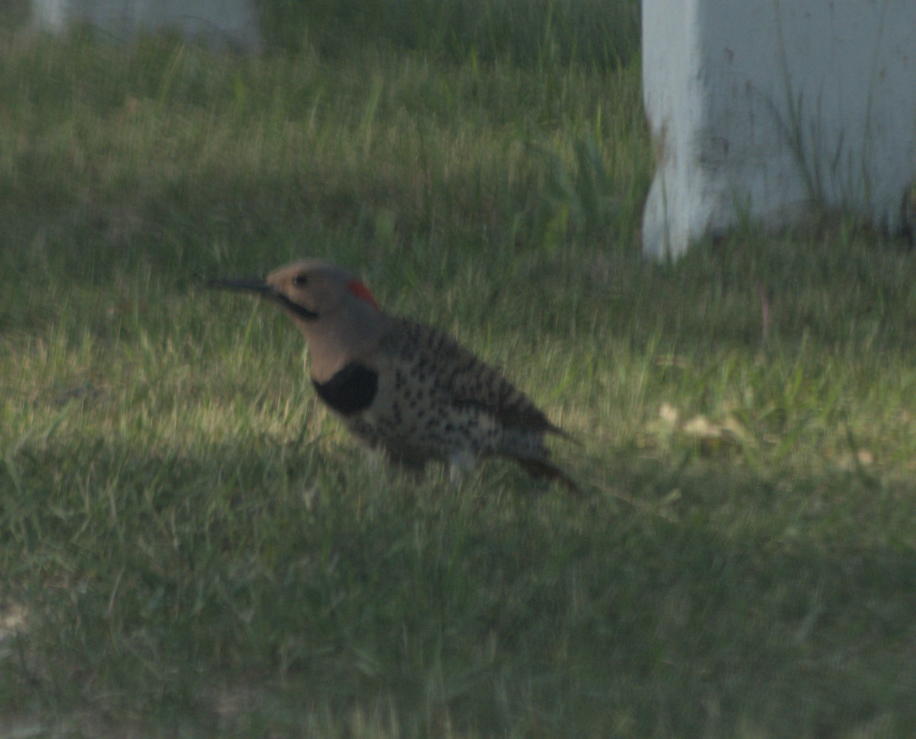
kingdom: Animalia
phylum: Chordata
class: Aves
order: Piciformes
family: Picidae
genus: Colaptes
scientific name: Colaptes auratus
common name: Northern flicker
